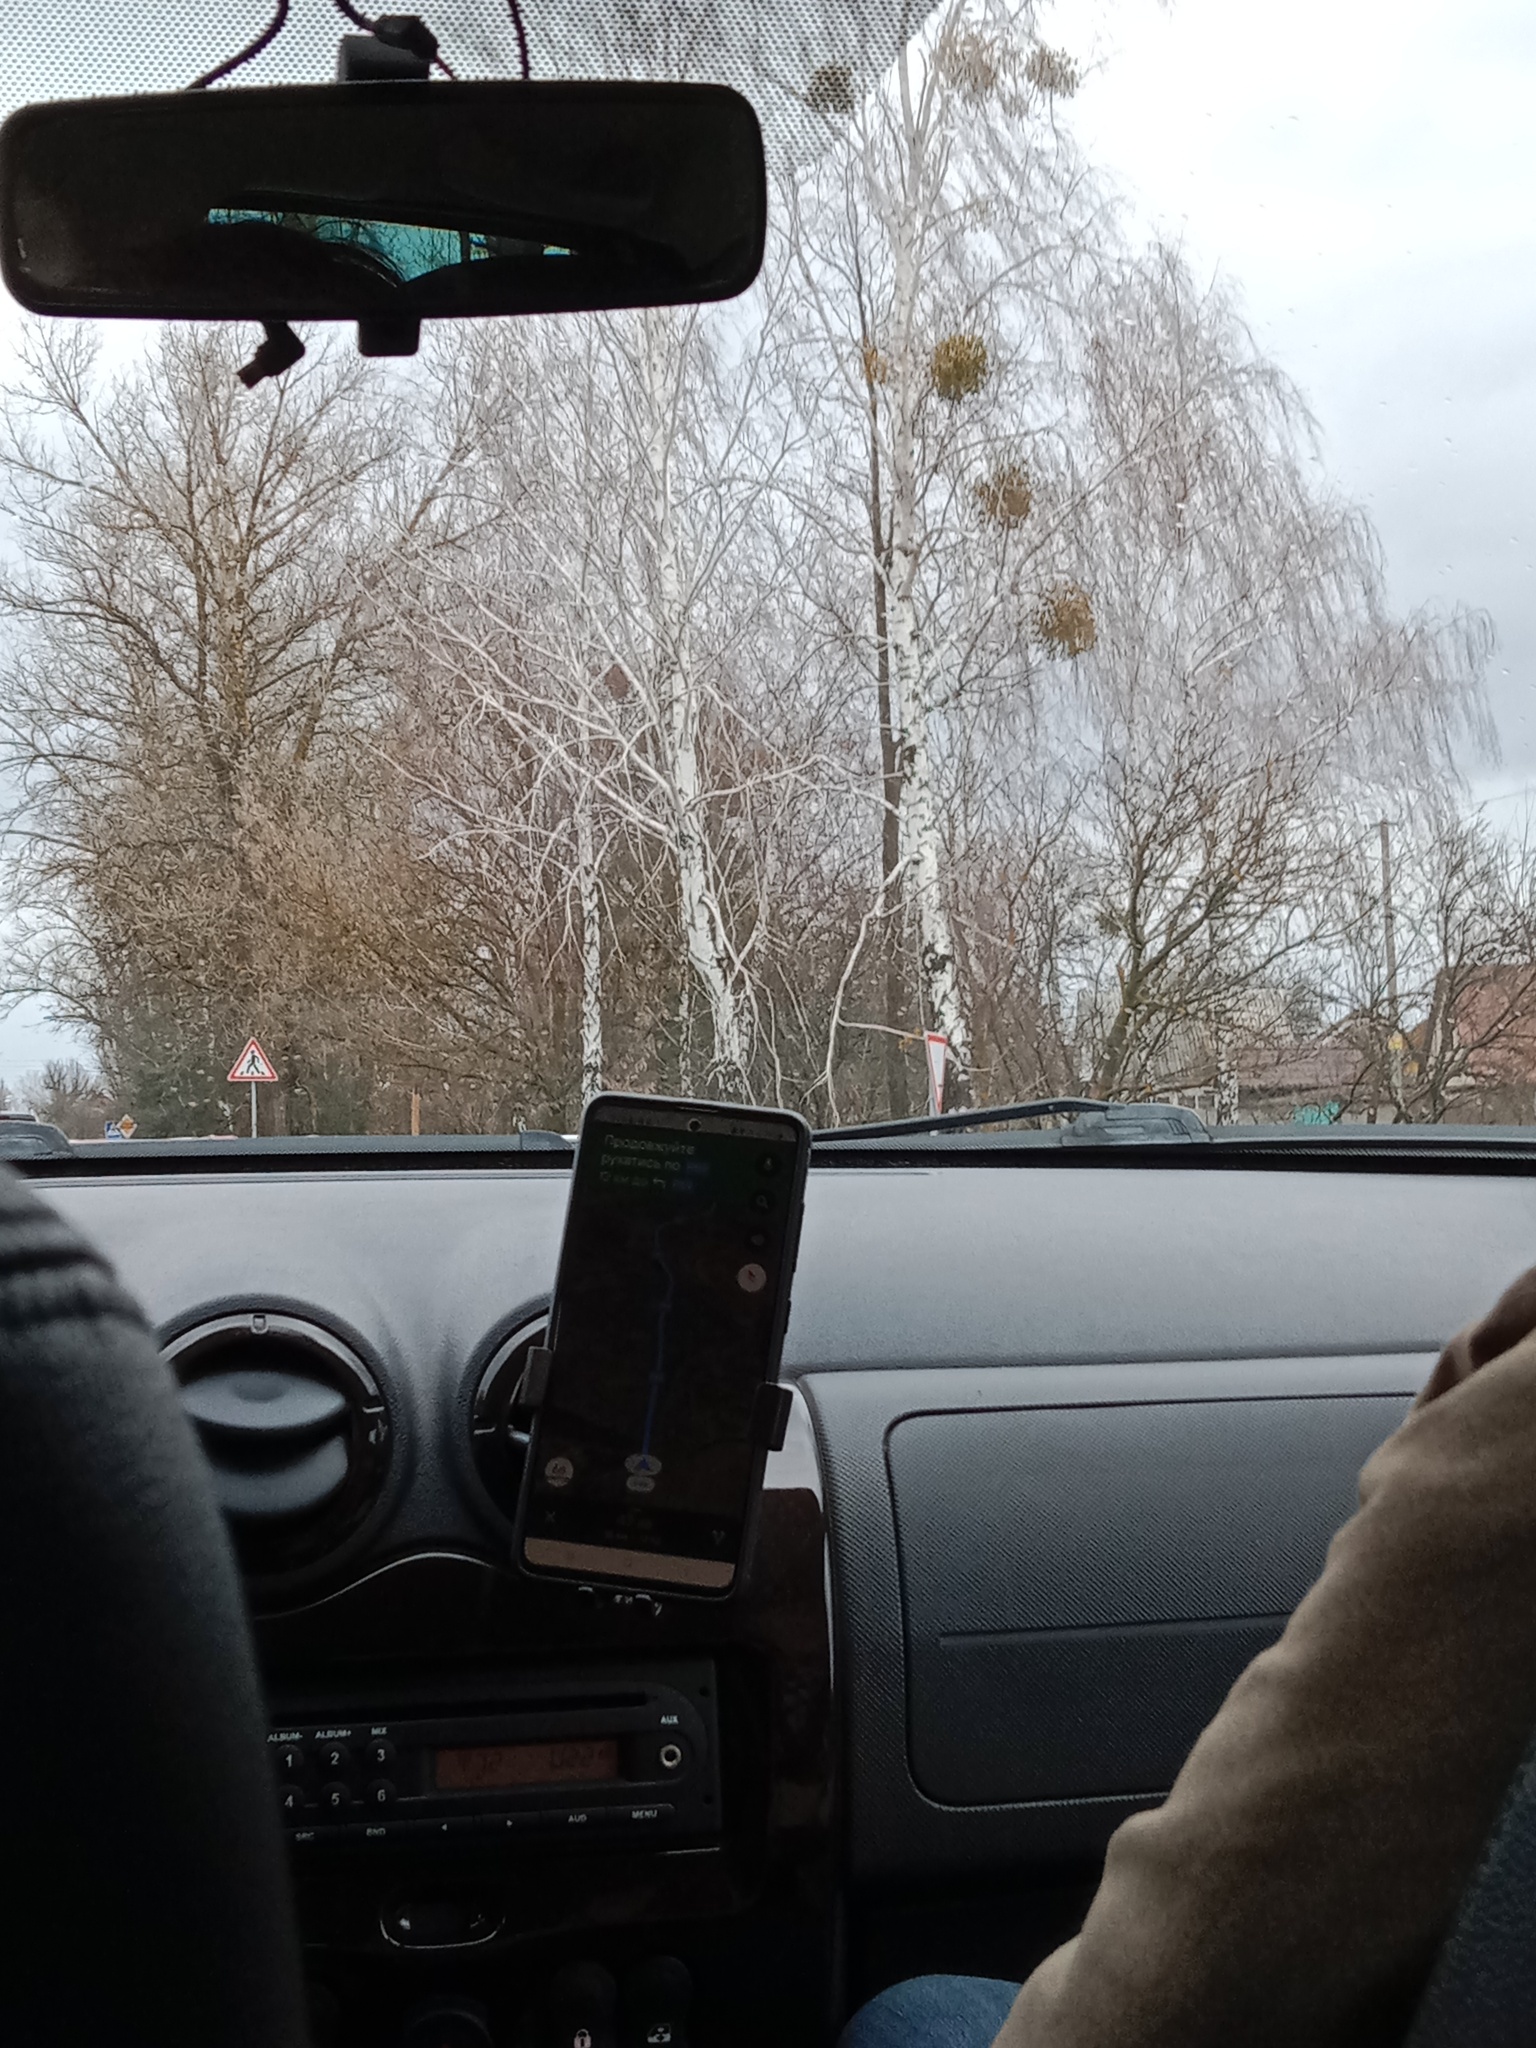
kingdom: Plantae
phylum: Tracheophyta
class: Magnoliopsida
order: Santalales
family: Viscaceae
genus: Viscum
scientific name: Viscum album
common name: Mistletoe
